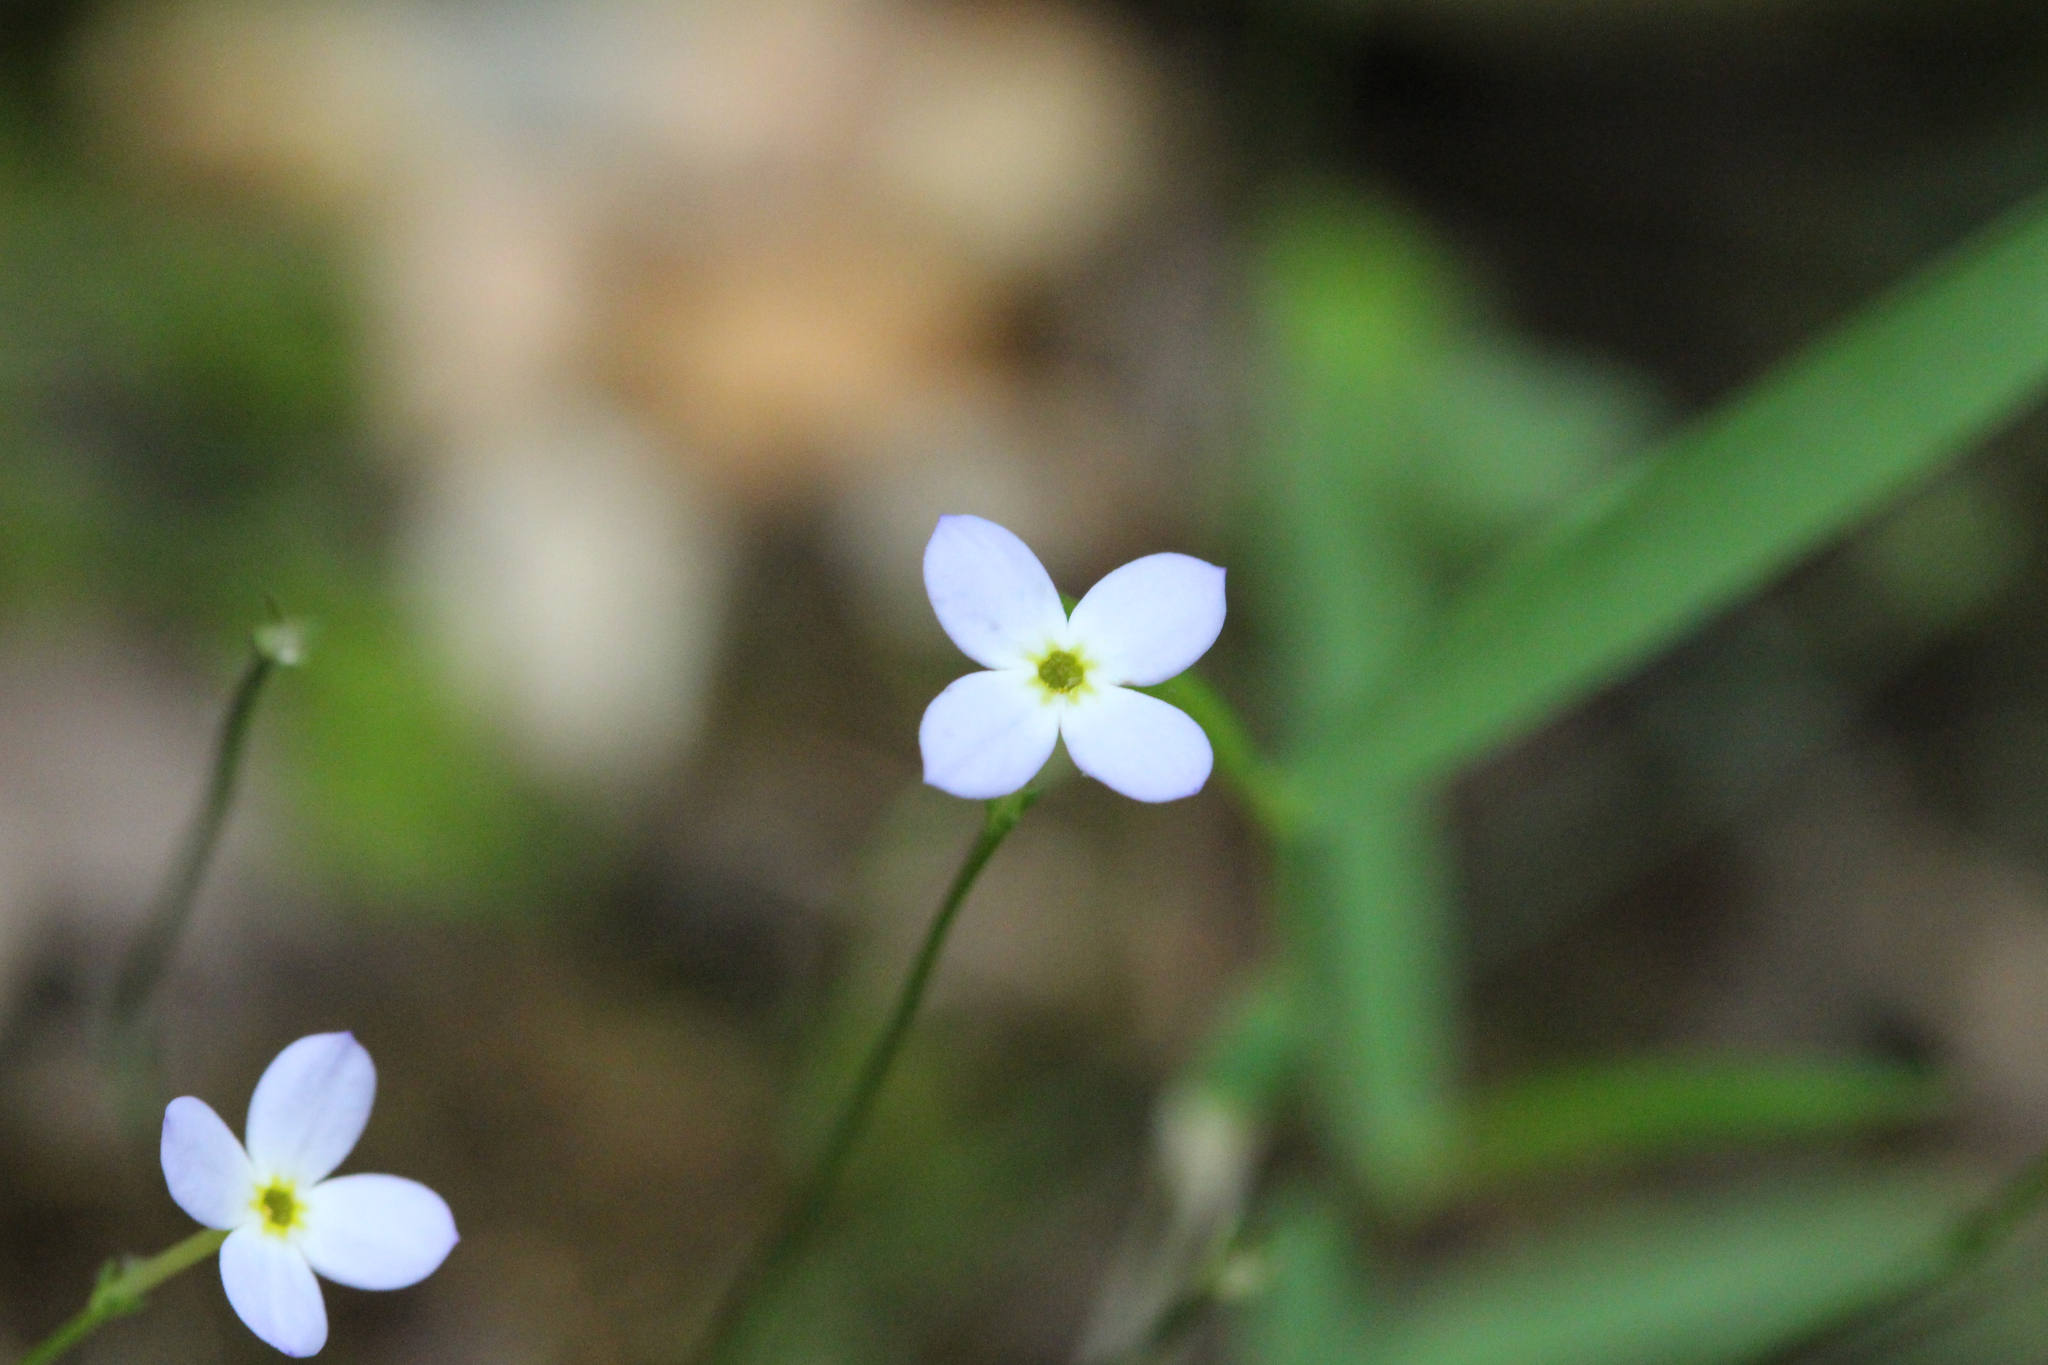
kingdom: Plantae
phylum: Tracheophyta
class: Magnoliopsida
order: Gentianales
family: Rubiaceae
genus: Houstonia
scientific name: Houstonia caerulea
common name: Bluets
